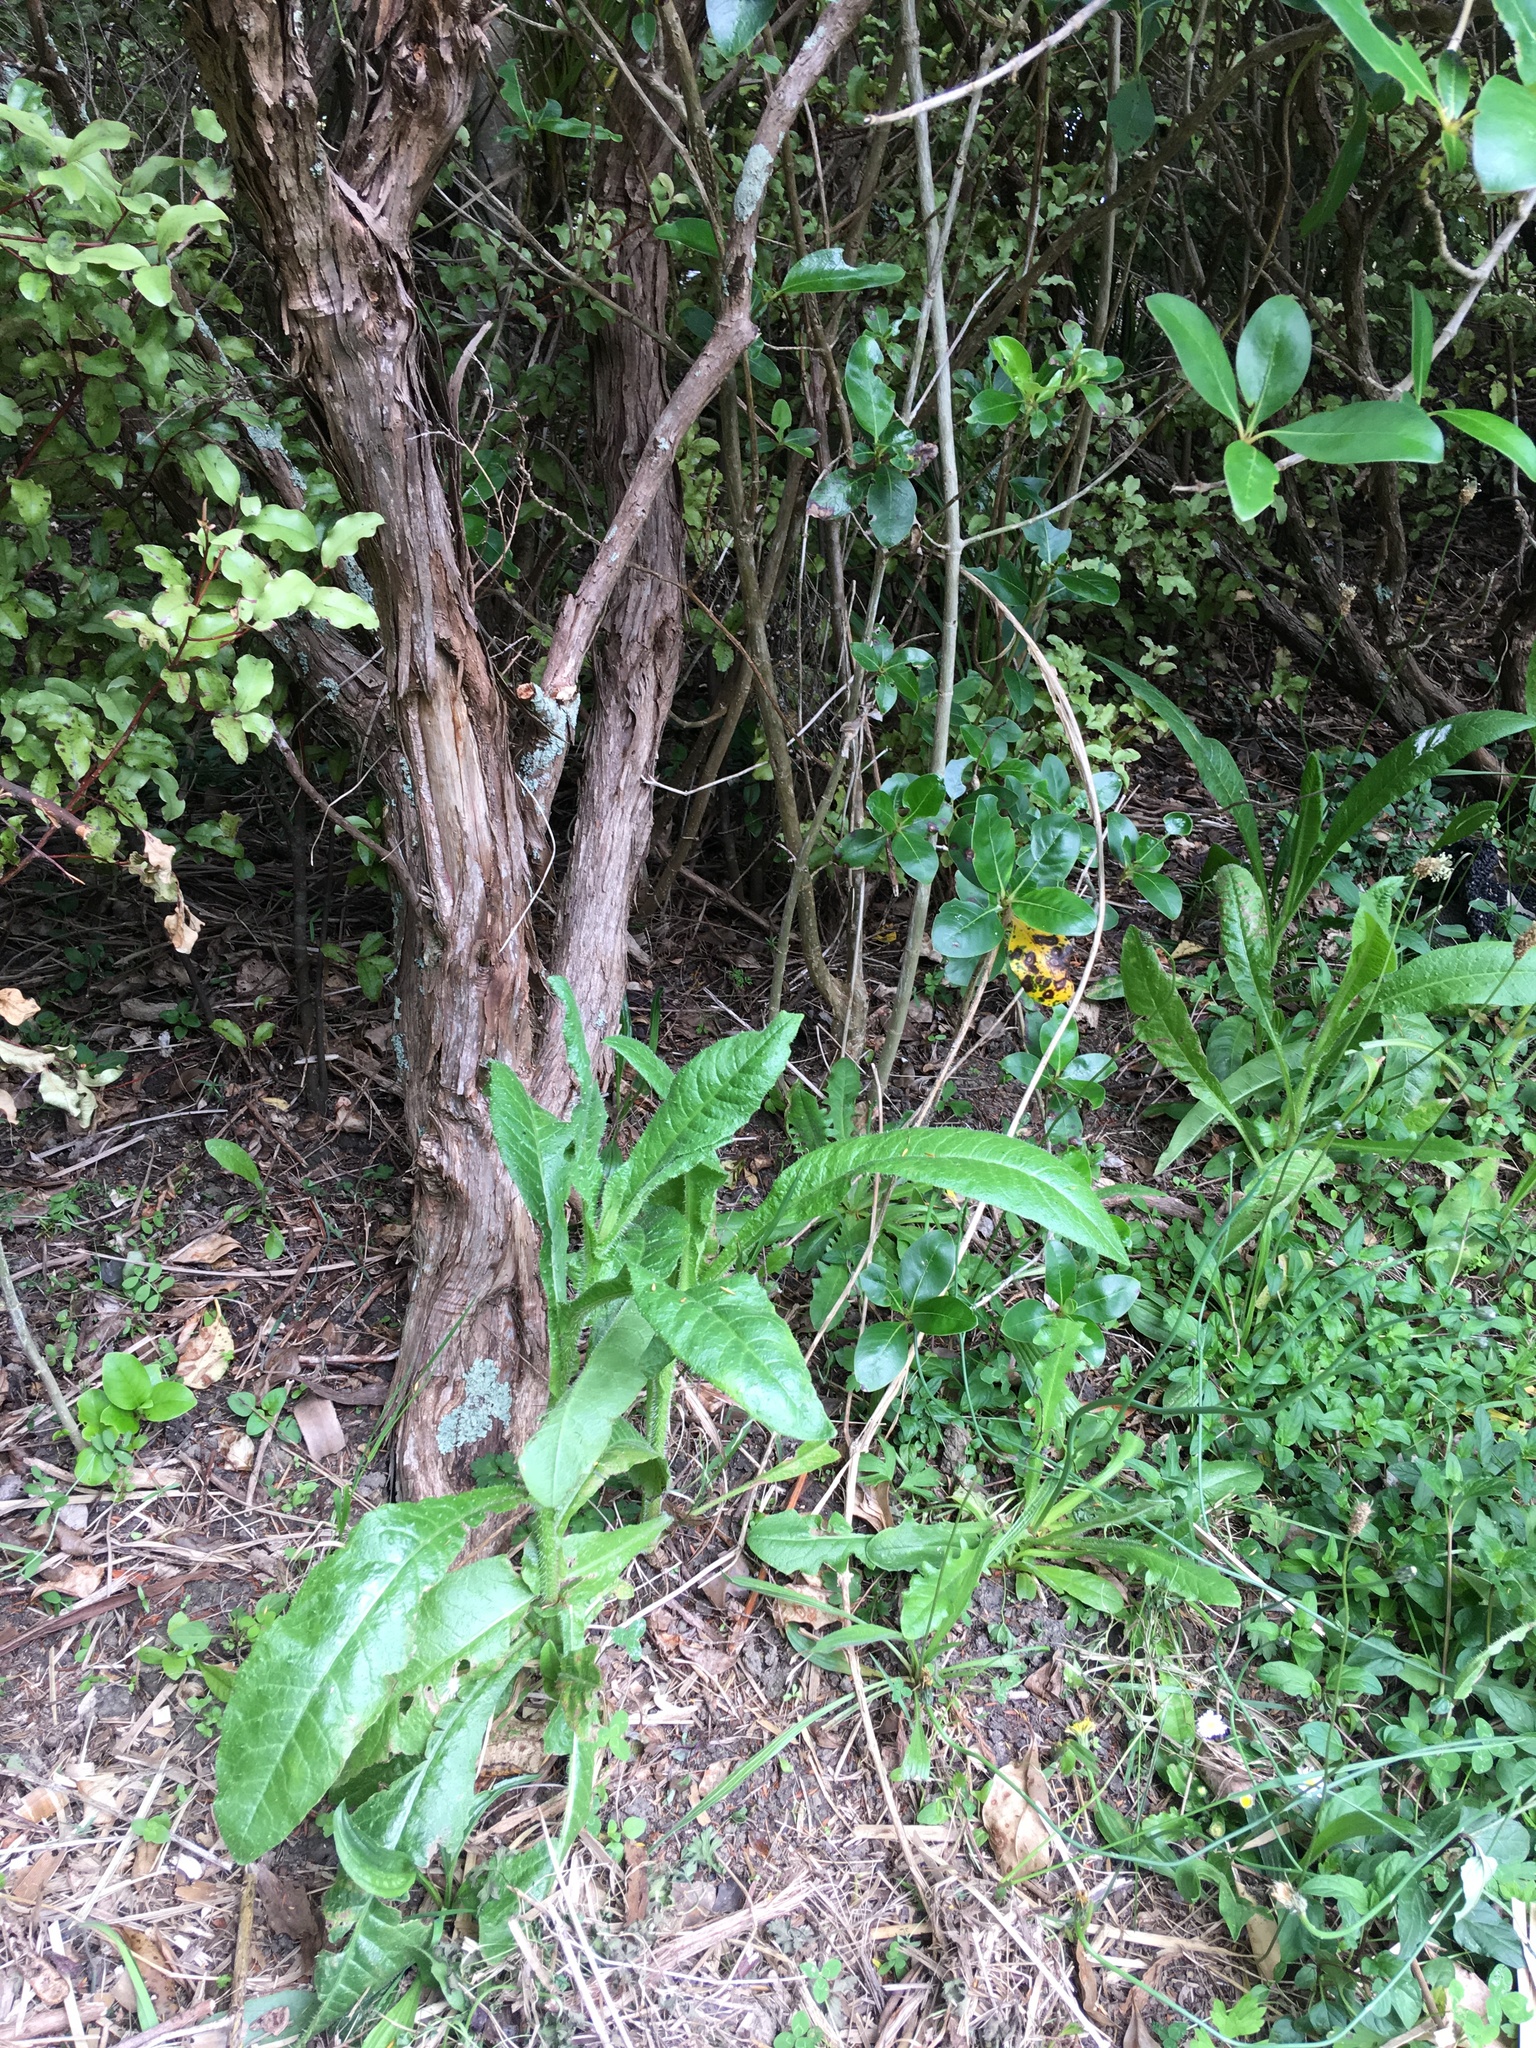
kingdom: Plantae
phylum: Tracheophyta
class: Magnoliopsida
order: Asterales
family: Asteraceae
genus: Helminthotheca
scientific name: Helminthotheca echioides
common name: Ox-tongue
